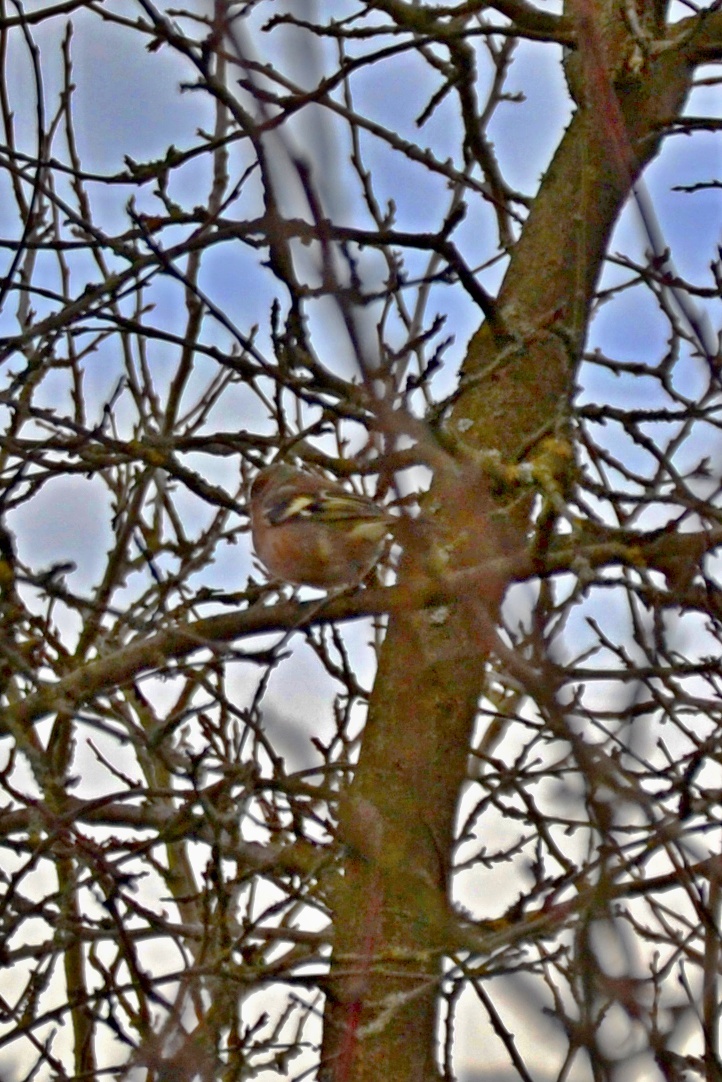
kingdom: Animalia
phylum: Chordata
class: Aves
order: Passeriformes
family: Fringillidae
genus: Fringilla
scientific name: Fringilla coelebs
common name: Common chaffinch
